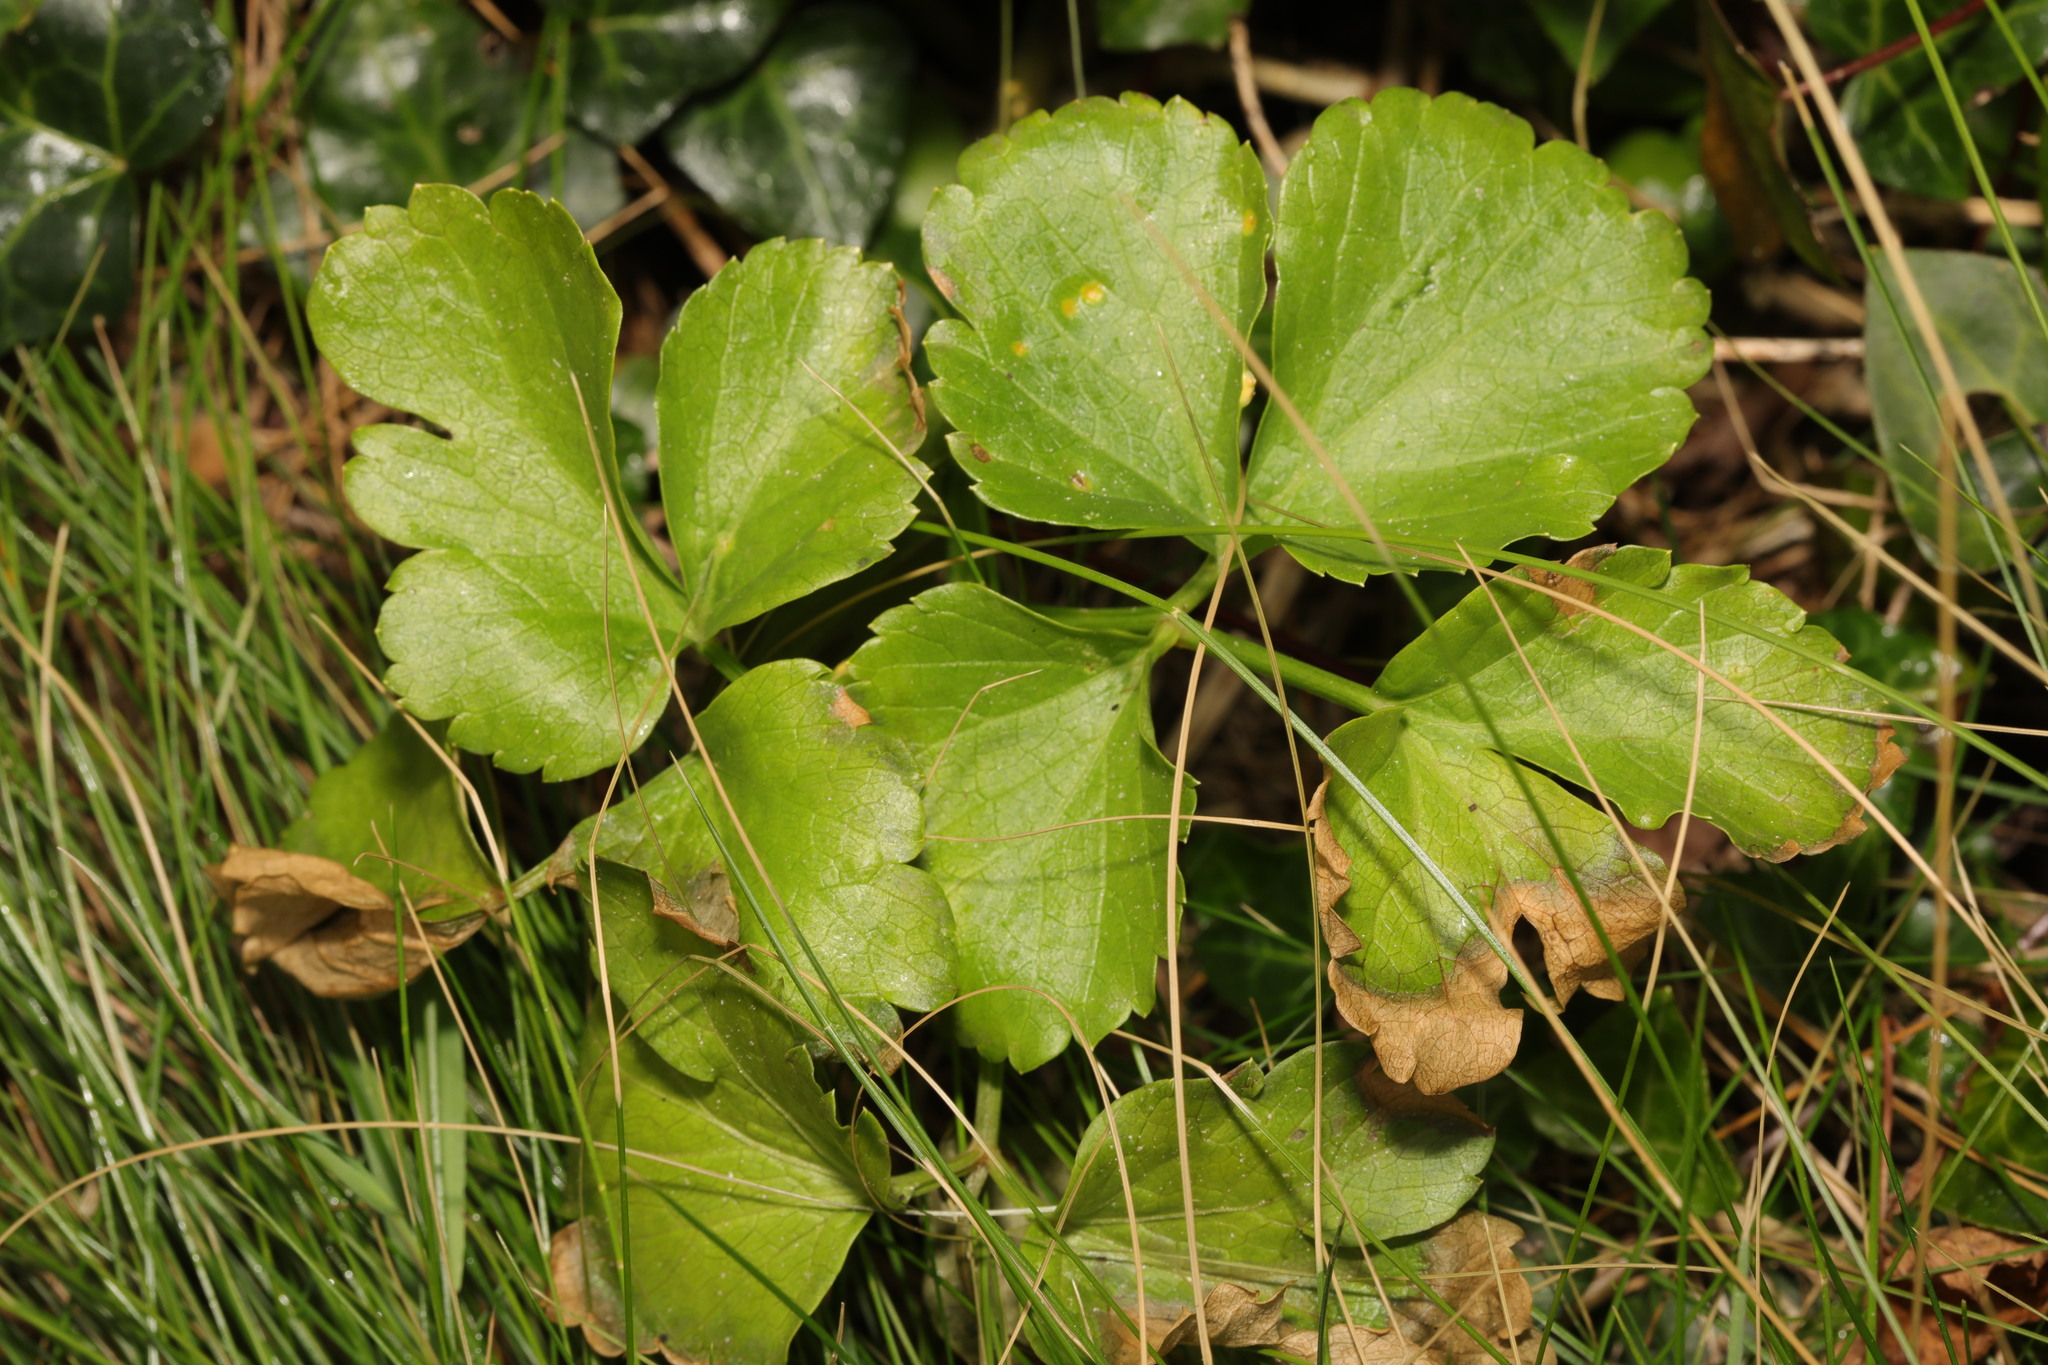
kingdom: Plantae
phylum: Tracheophyta
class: Magnoliopsida
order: Apiales
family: Apiaceae
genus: Smyrnium
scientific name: Smyrnium olusatrum
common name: Alexanders
